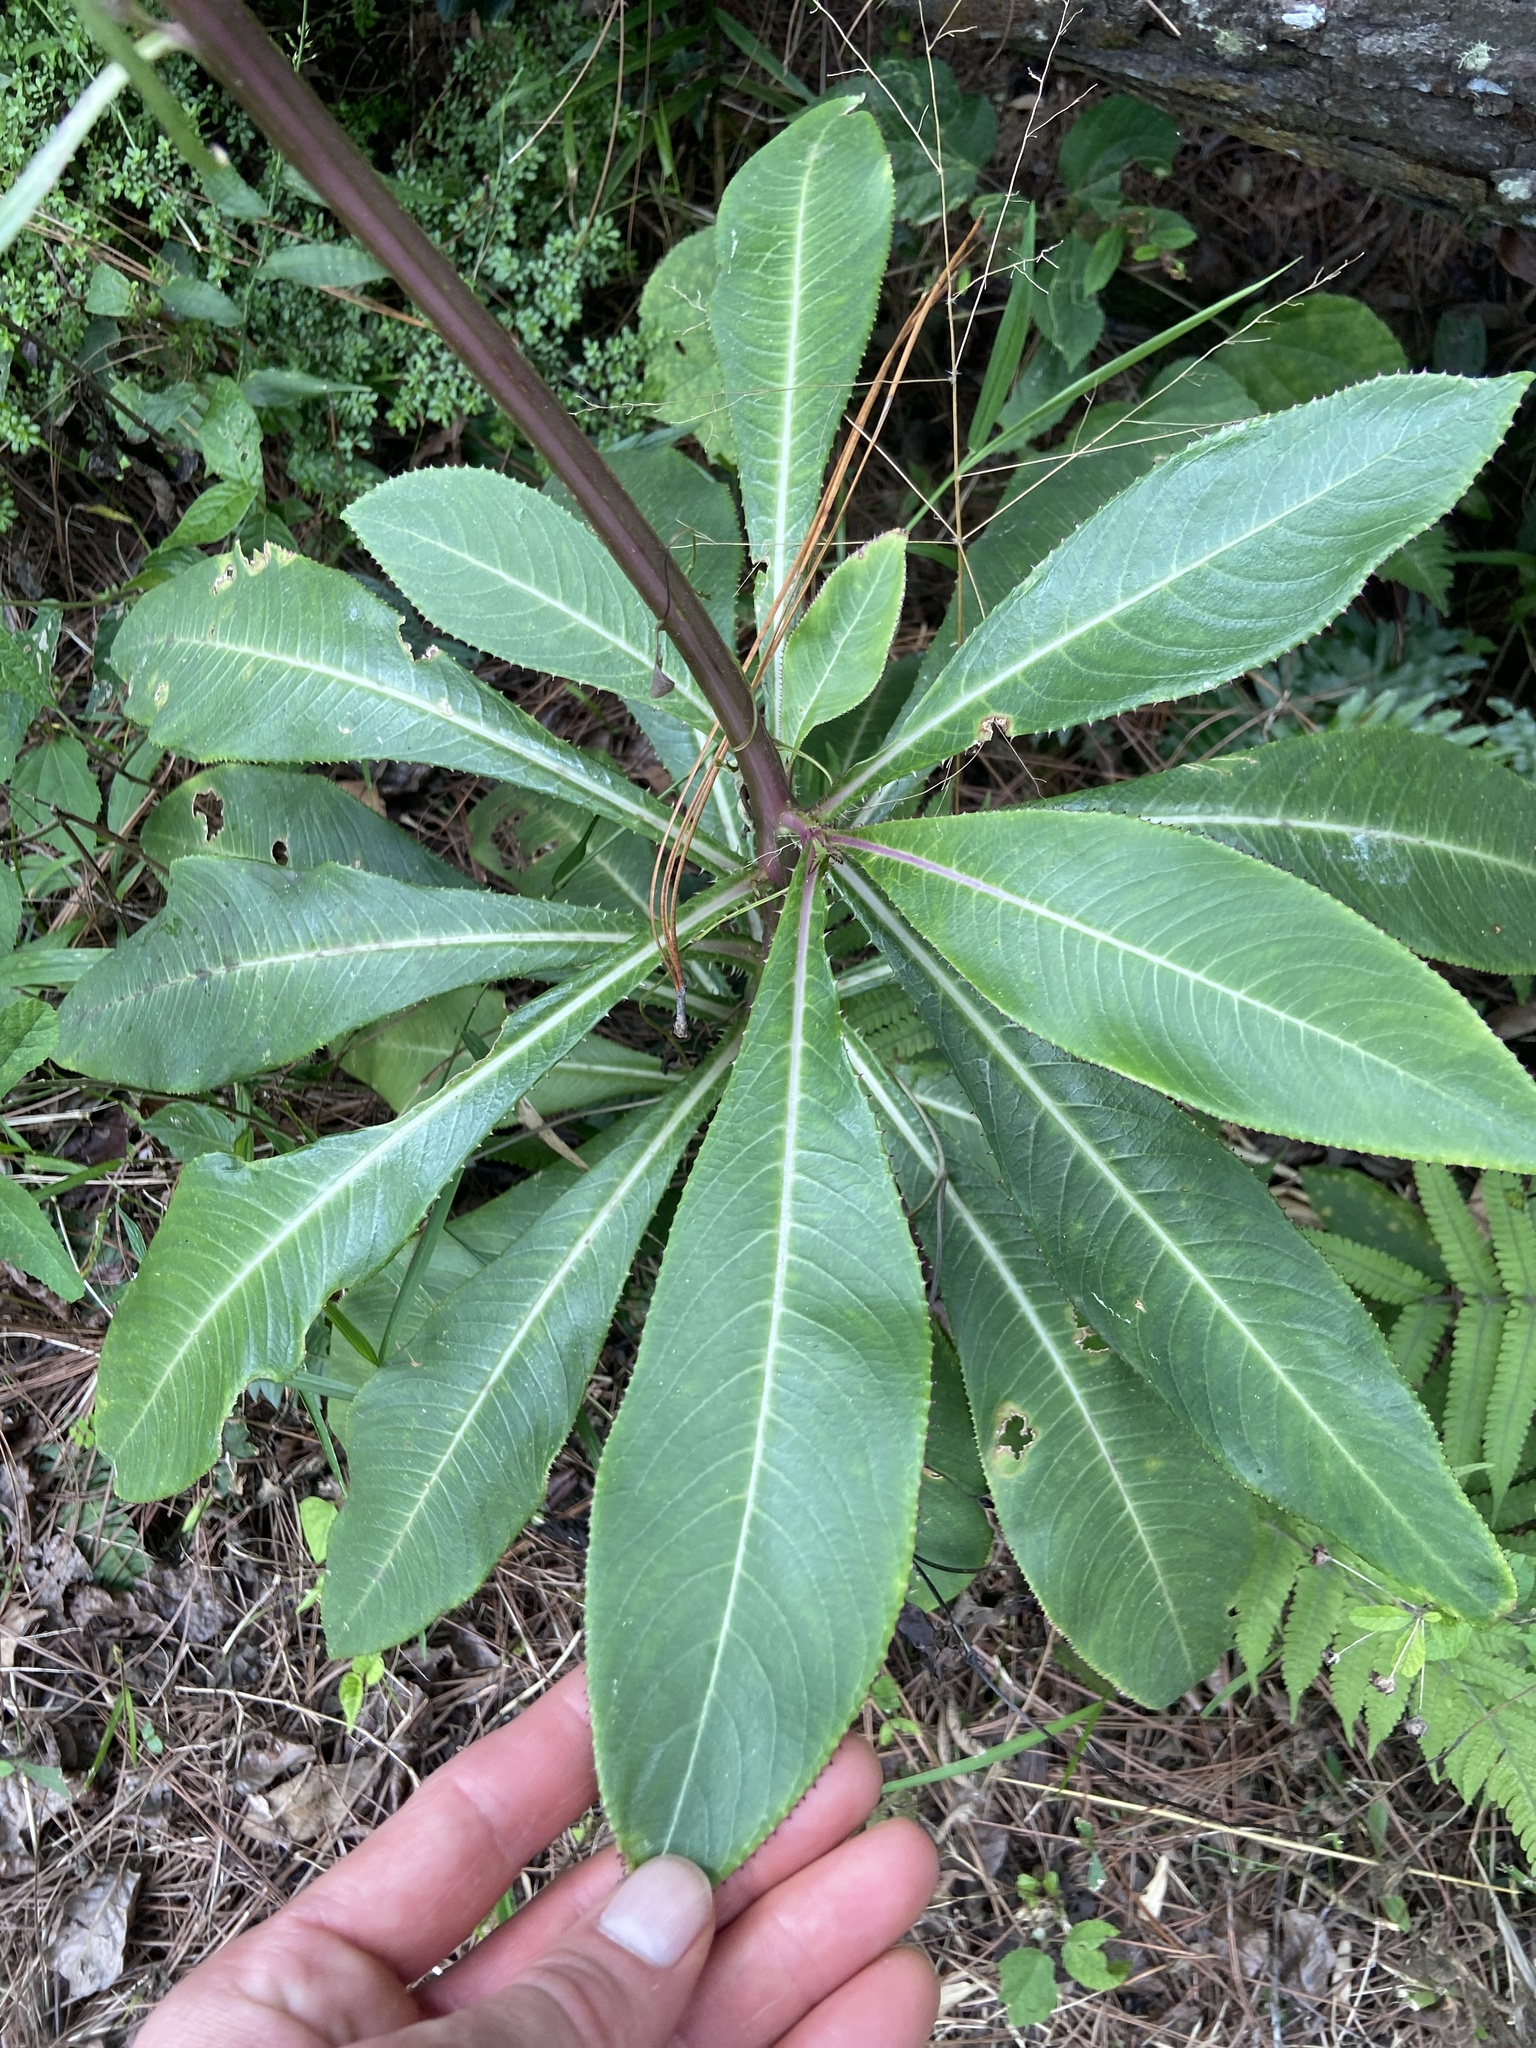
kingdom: Plantae
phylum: Tracheophyta
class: Magnoliopsida
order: Asterales
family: Campanulaceae
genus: Lobelia
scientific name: Lobelia robusta
